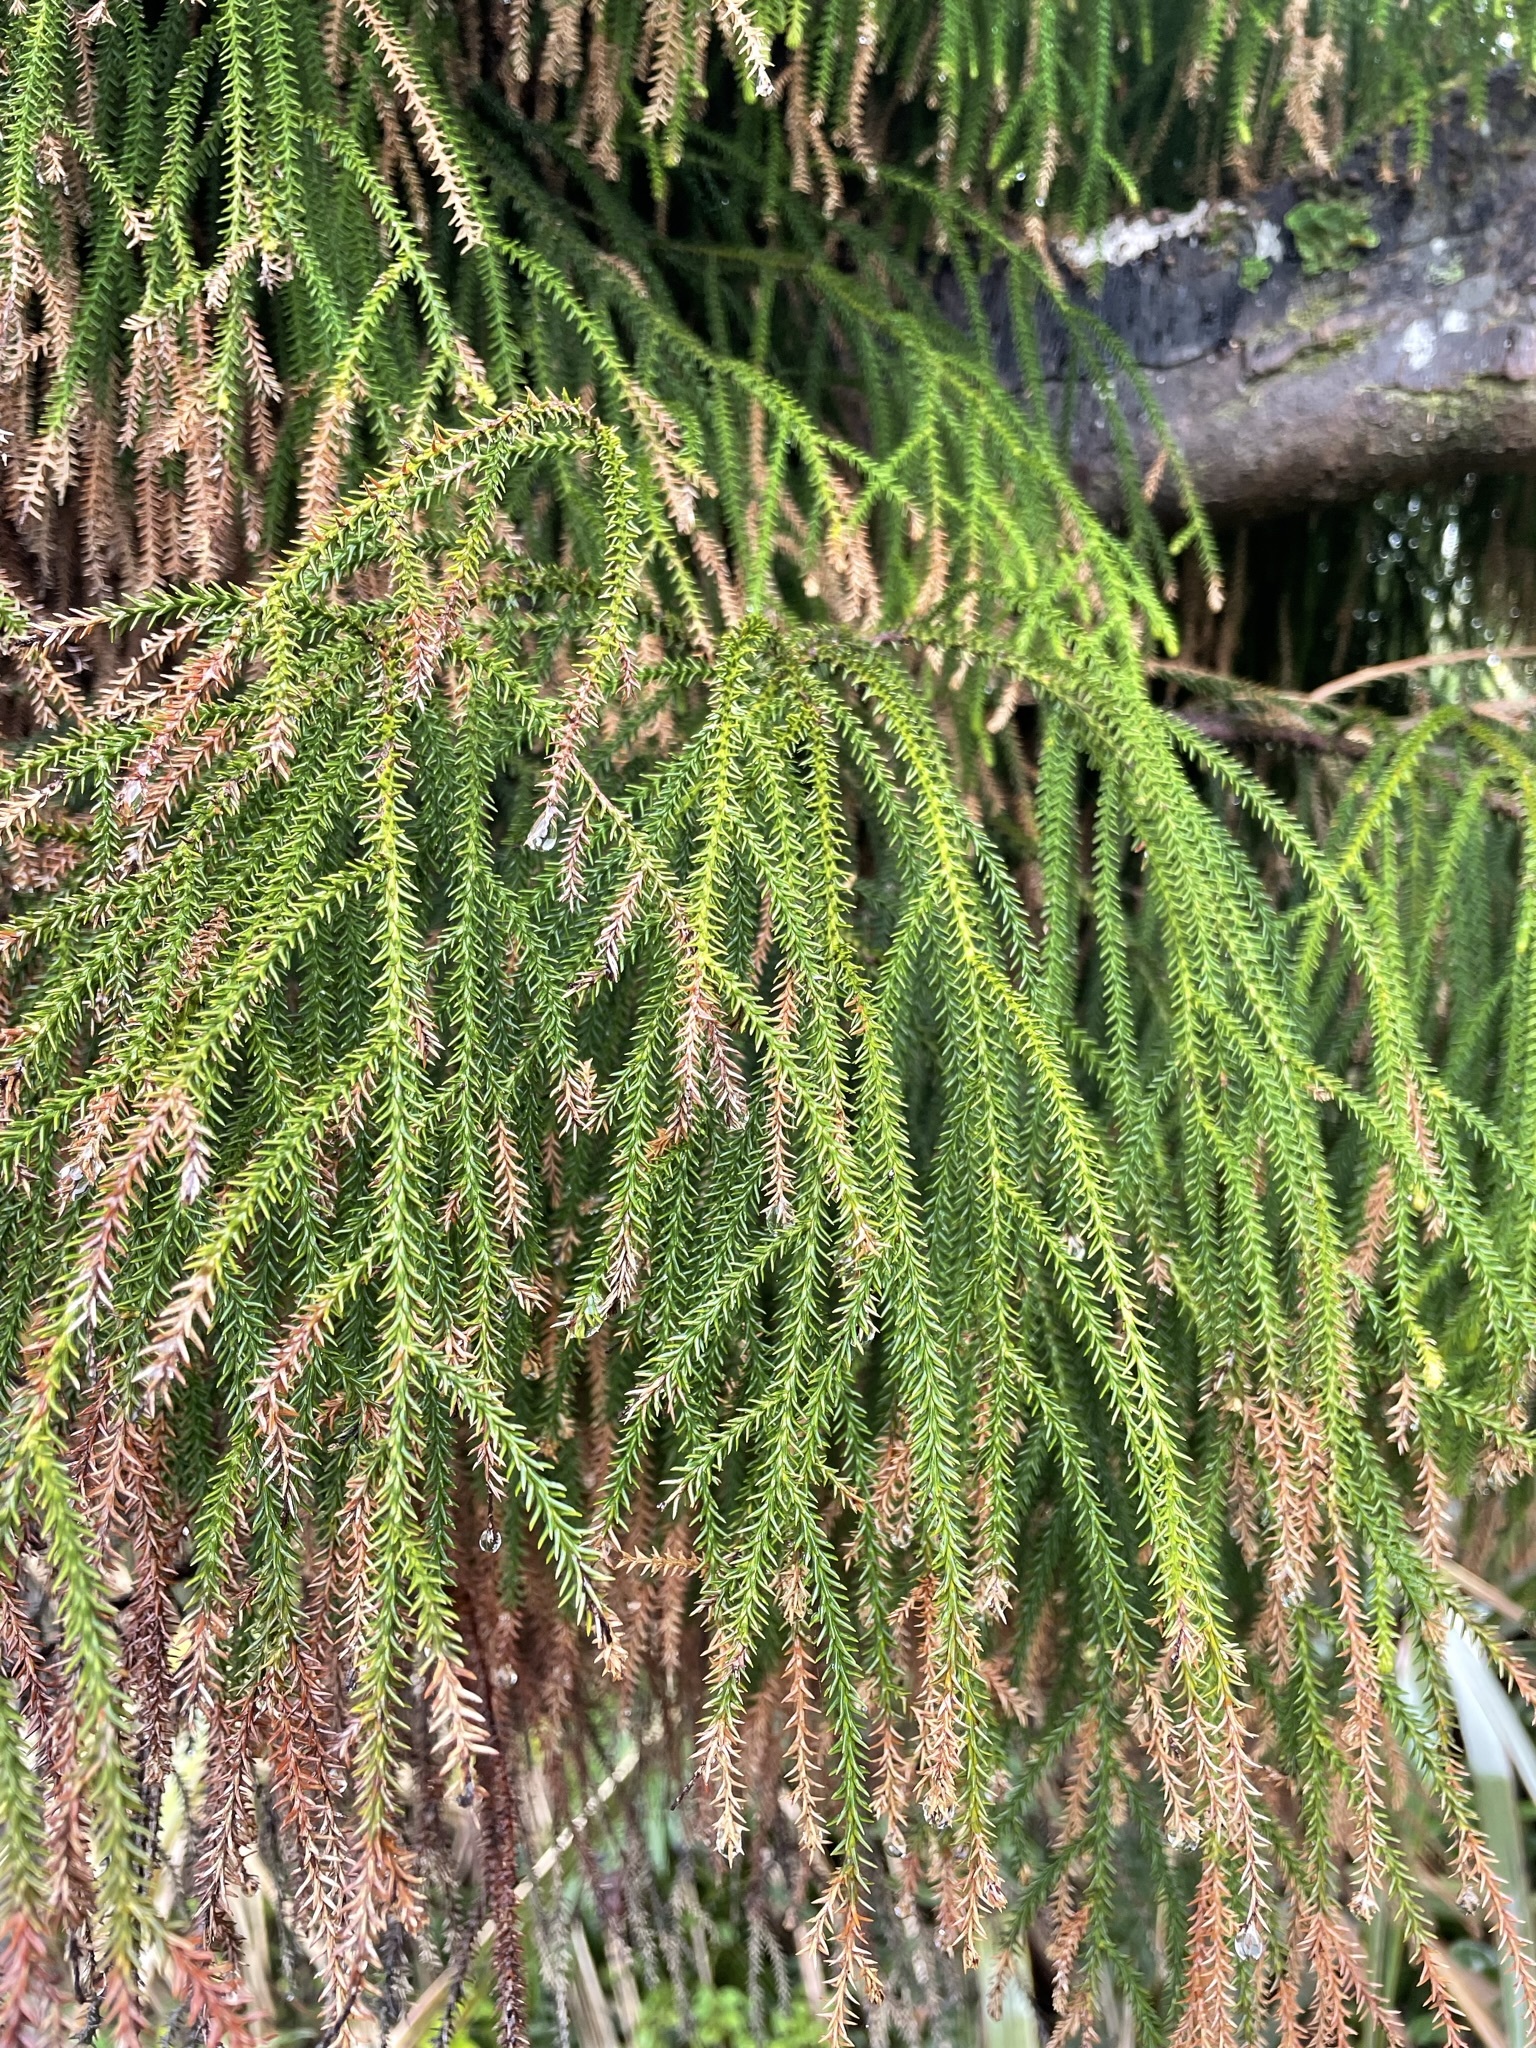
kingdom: Plantae
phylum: Tracheophyta
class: Pinopsida
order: Pinales
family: Podocarpaceae
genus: Dacrydium
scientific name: Dacrydium cupressinum
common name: Red pine
